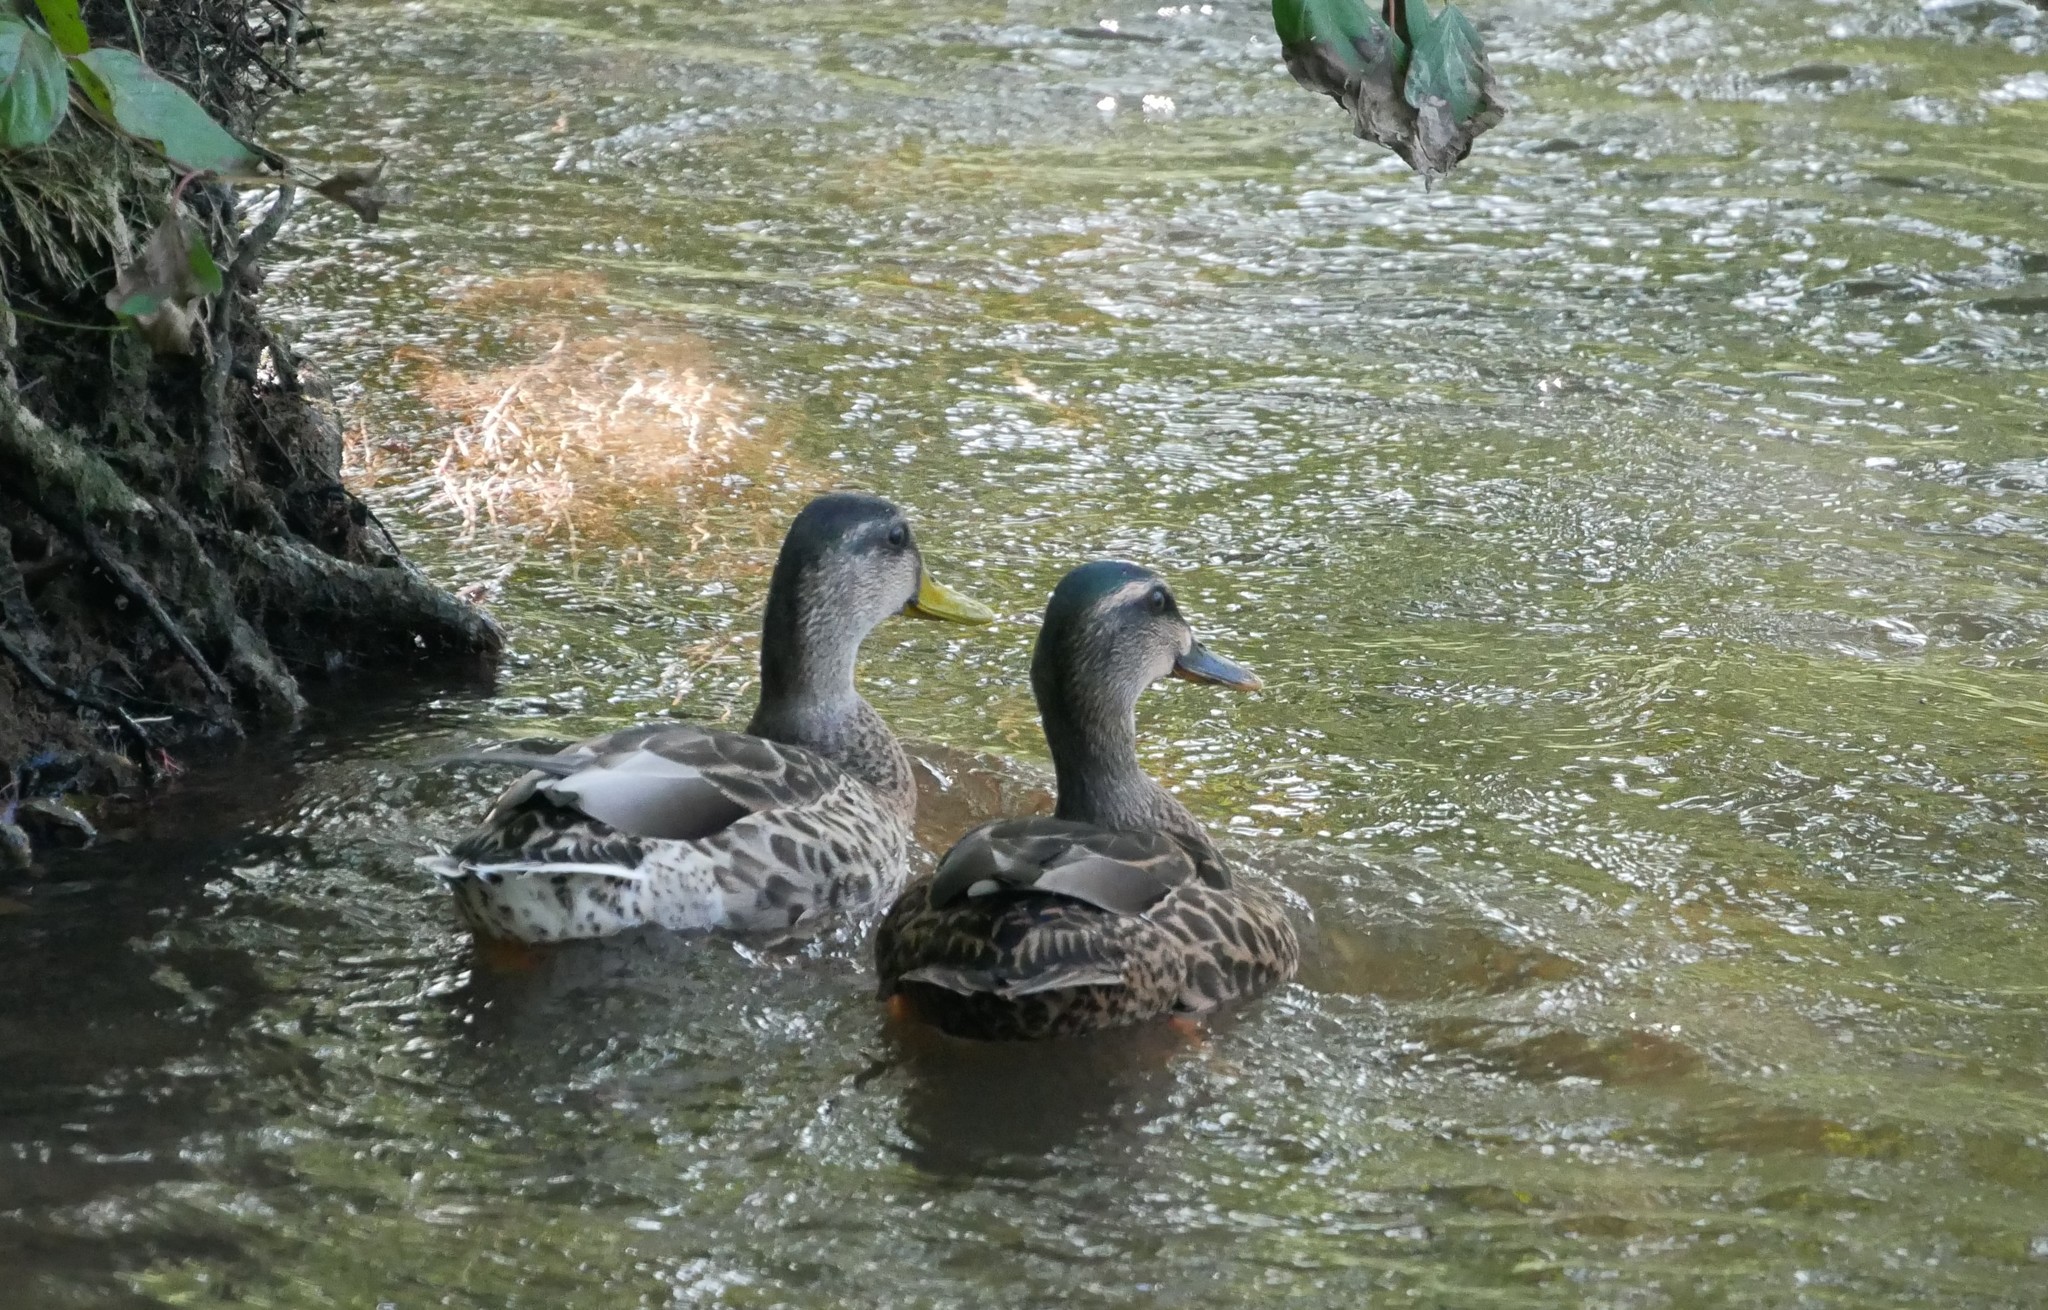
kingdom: Animalia
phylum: Chordata
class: Aves
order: Anseriformes
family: Anatidae
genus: Anas
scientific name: Anas platyrhynchos
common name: Mallard
